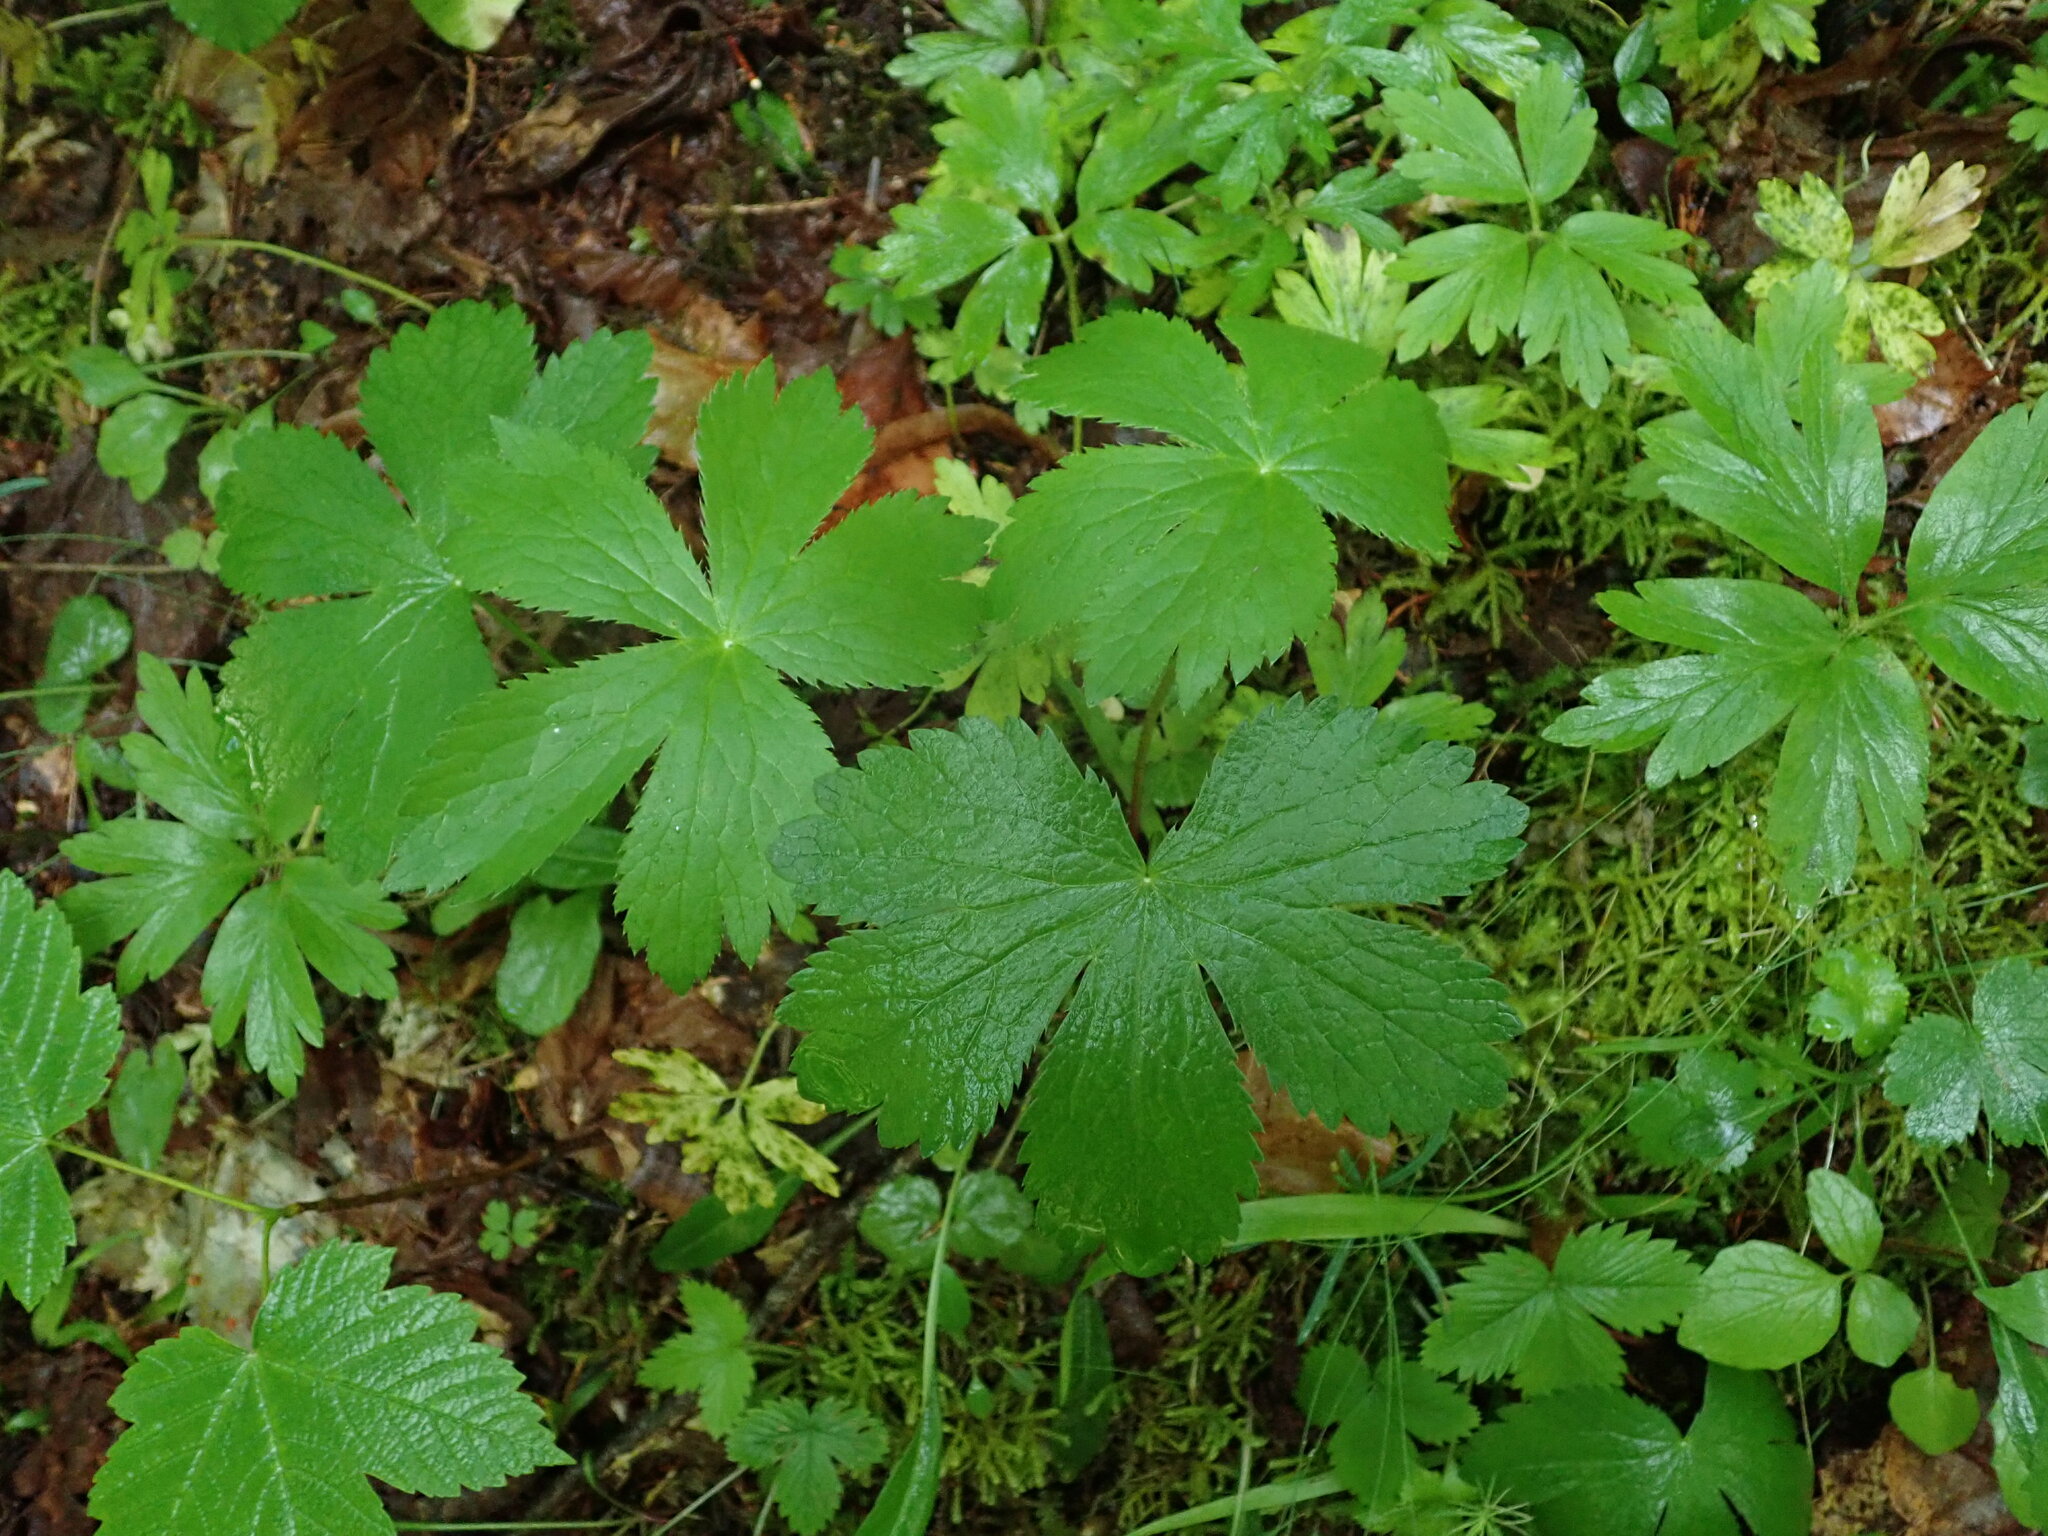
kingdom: Plantae
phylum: Tracheophyta
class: Magnoliopsida
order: Apiales
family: Apiaceae
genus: Astrantia
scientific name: Astrantia major
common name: Greater masterwort
